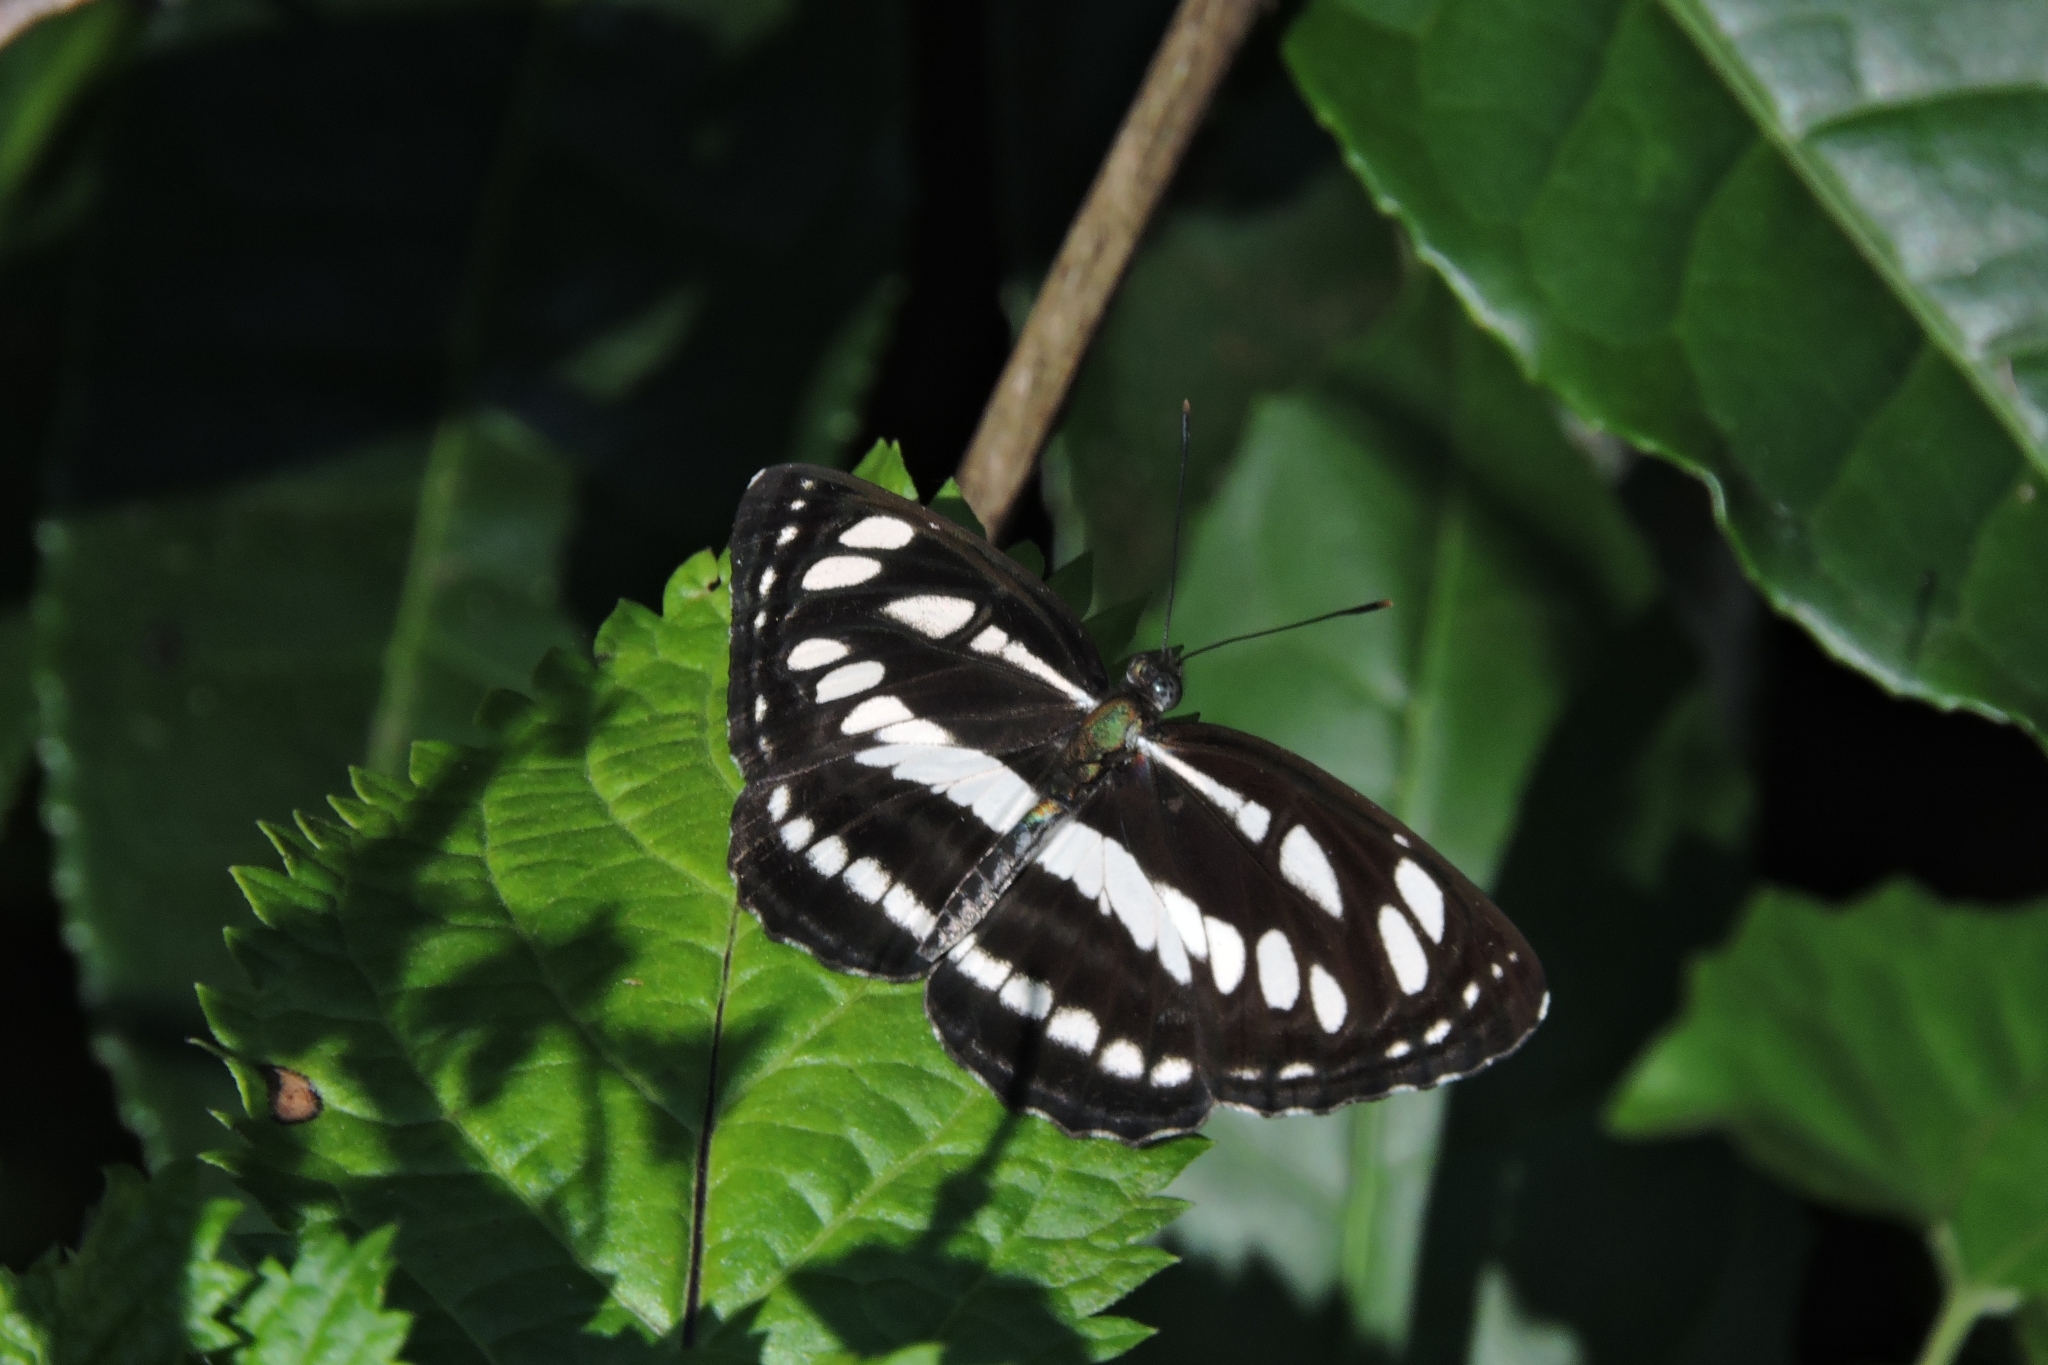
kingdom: Animalia
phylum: Arthropoda
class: Insecta
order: Lepidoptera
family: Nymphalidae
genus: Neptis
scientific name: Neptis hylas
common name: Common sailer
